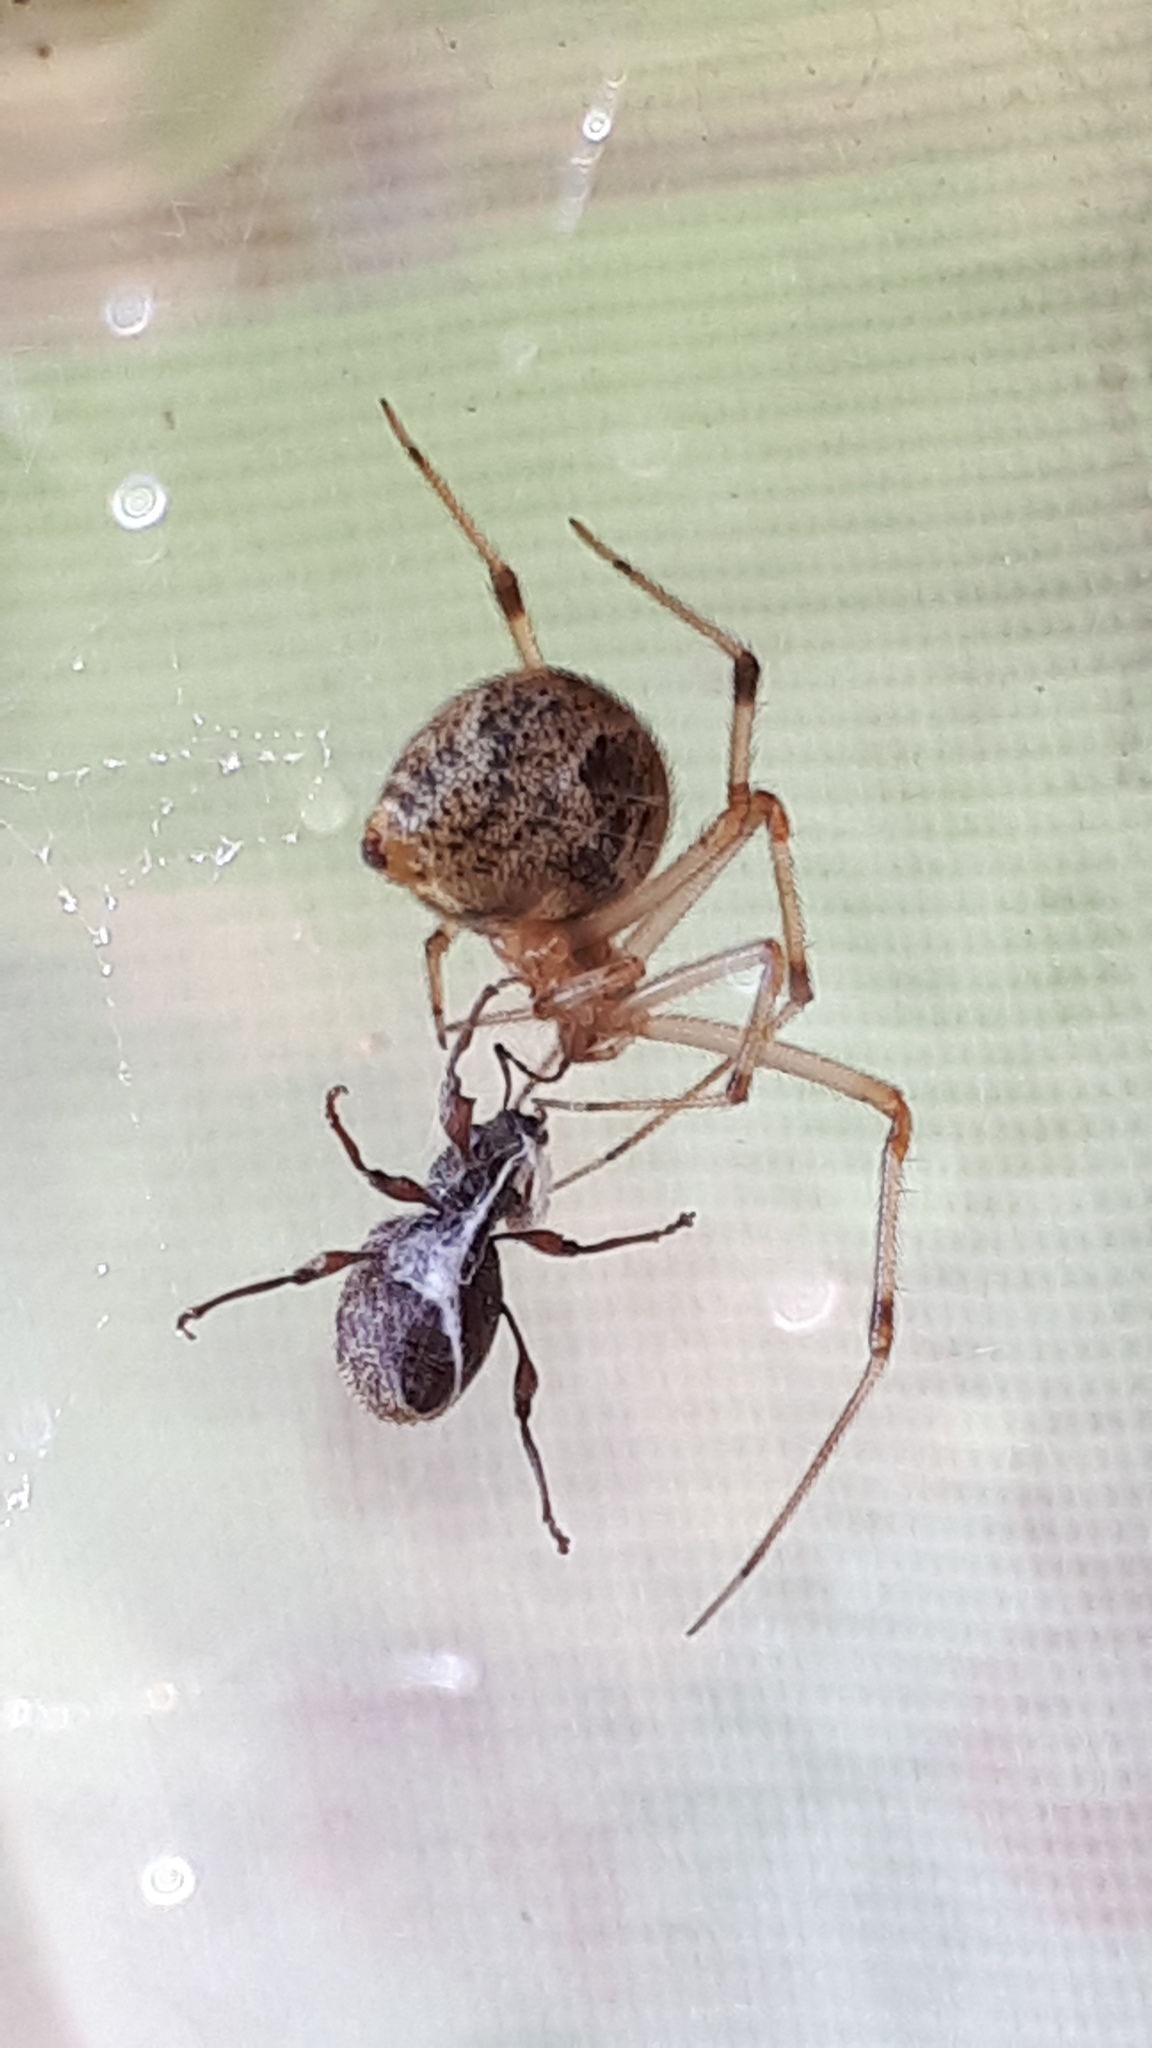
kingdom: Animalia
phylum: Arthropoda
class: Arachnida
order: Araneae
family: Theridiidae
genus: Parasteatoda
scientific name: Parasteatoda tepidariorum
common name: Common house spider
